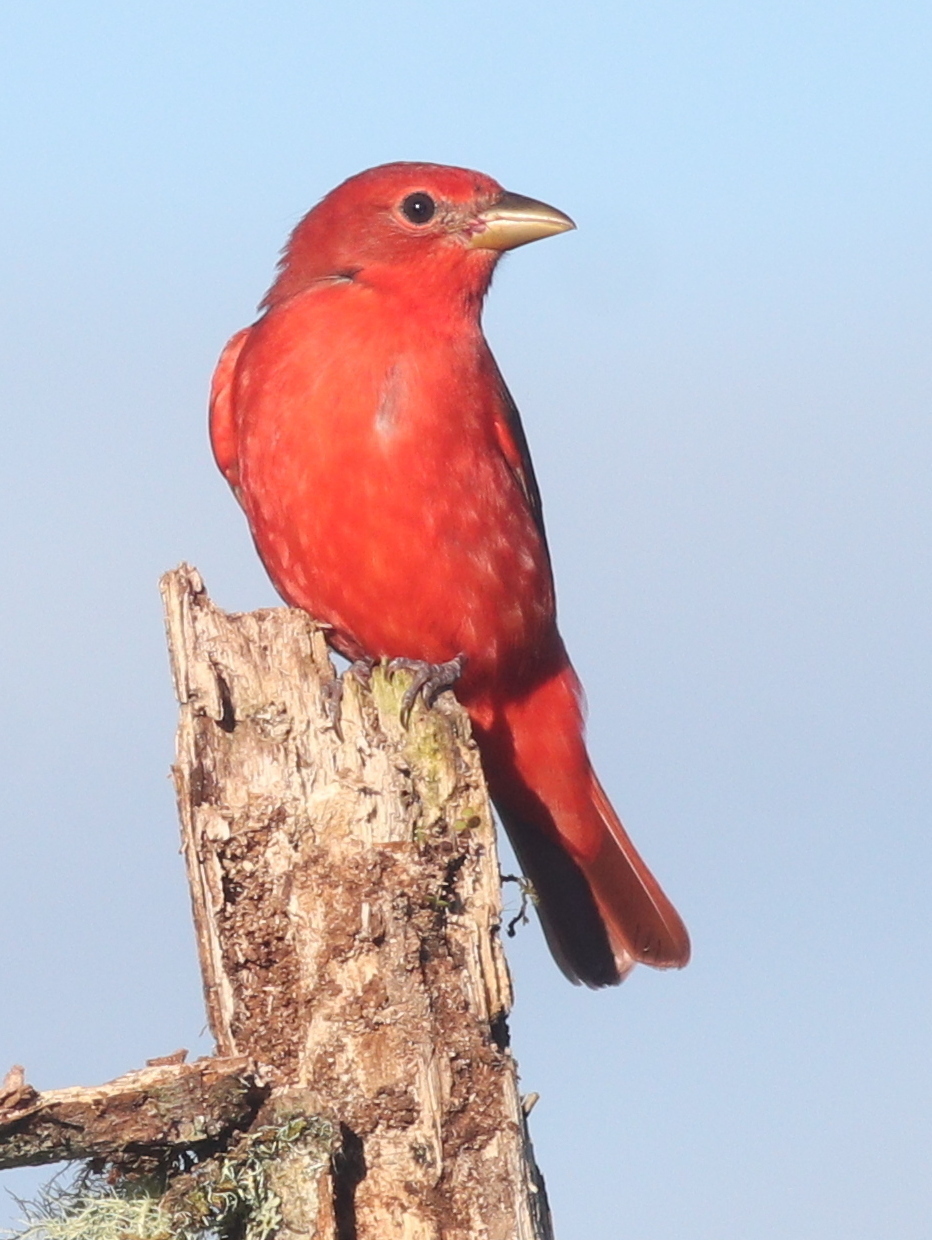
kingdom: Animalia
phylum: Chordata
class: Aves
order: Passeriformes
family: Cardinalidae
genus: Piranga
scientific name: Piranga rubra
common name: Summer tanager
